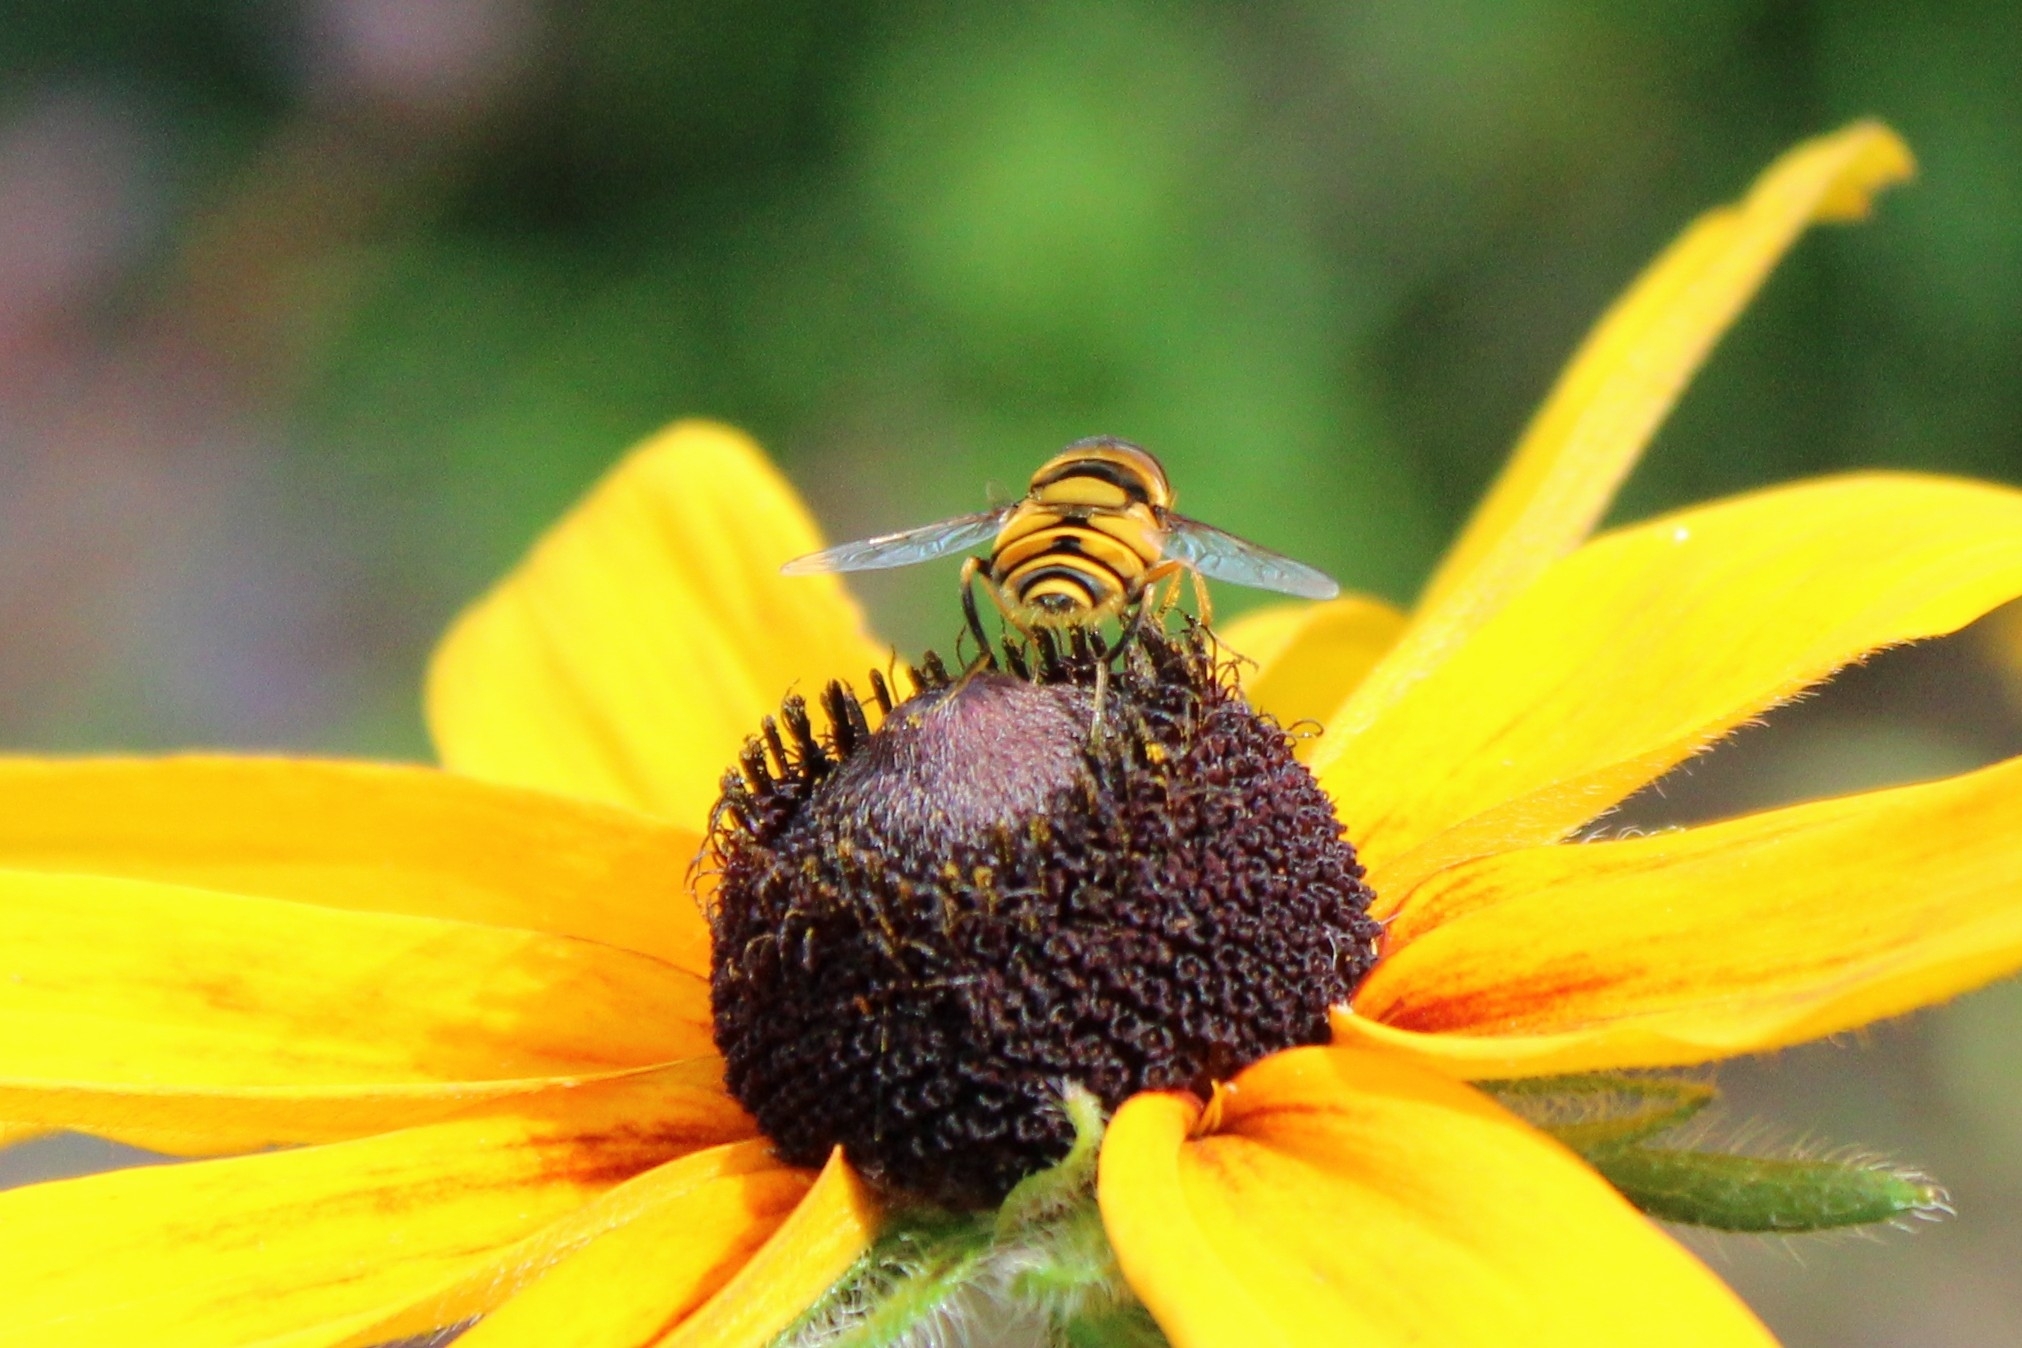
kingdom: Animalia
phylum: Arthropoda
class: Insecta
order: Diptera
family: Syrphidae
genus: Eristalis
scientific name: Eristalis transversa
